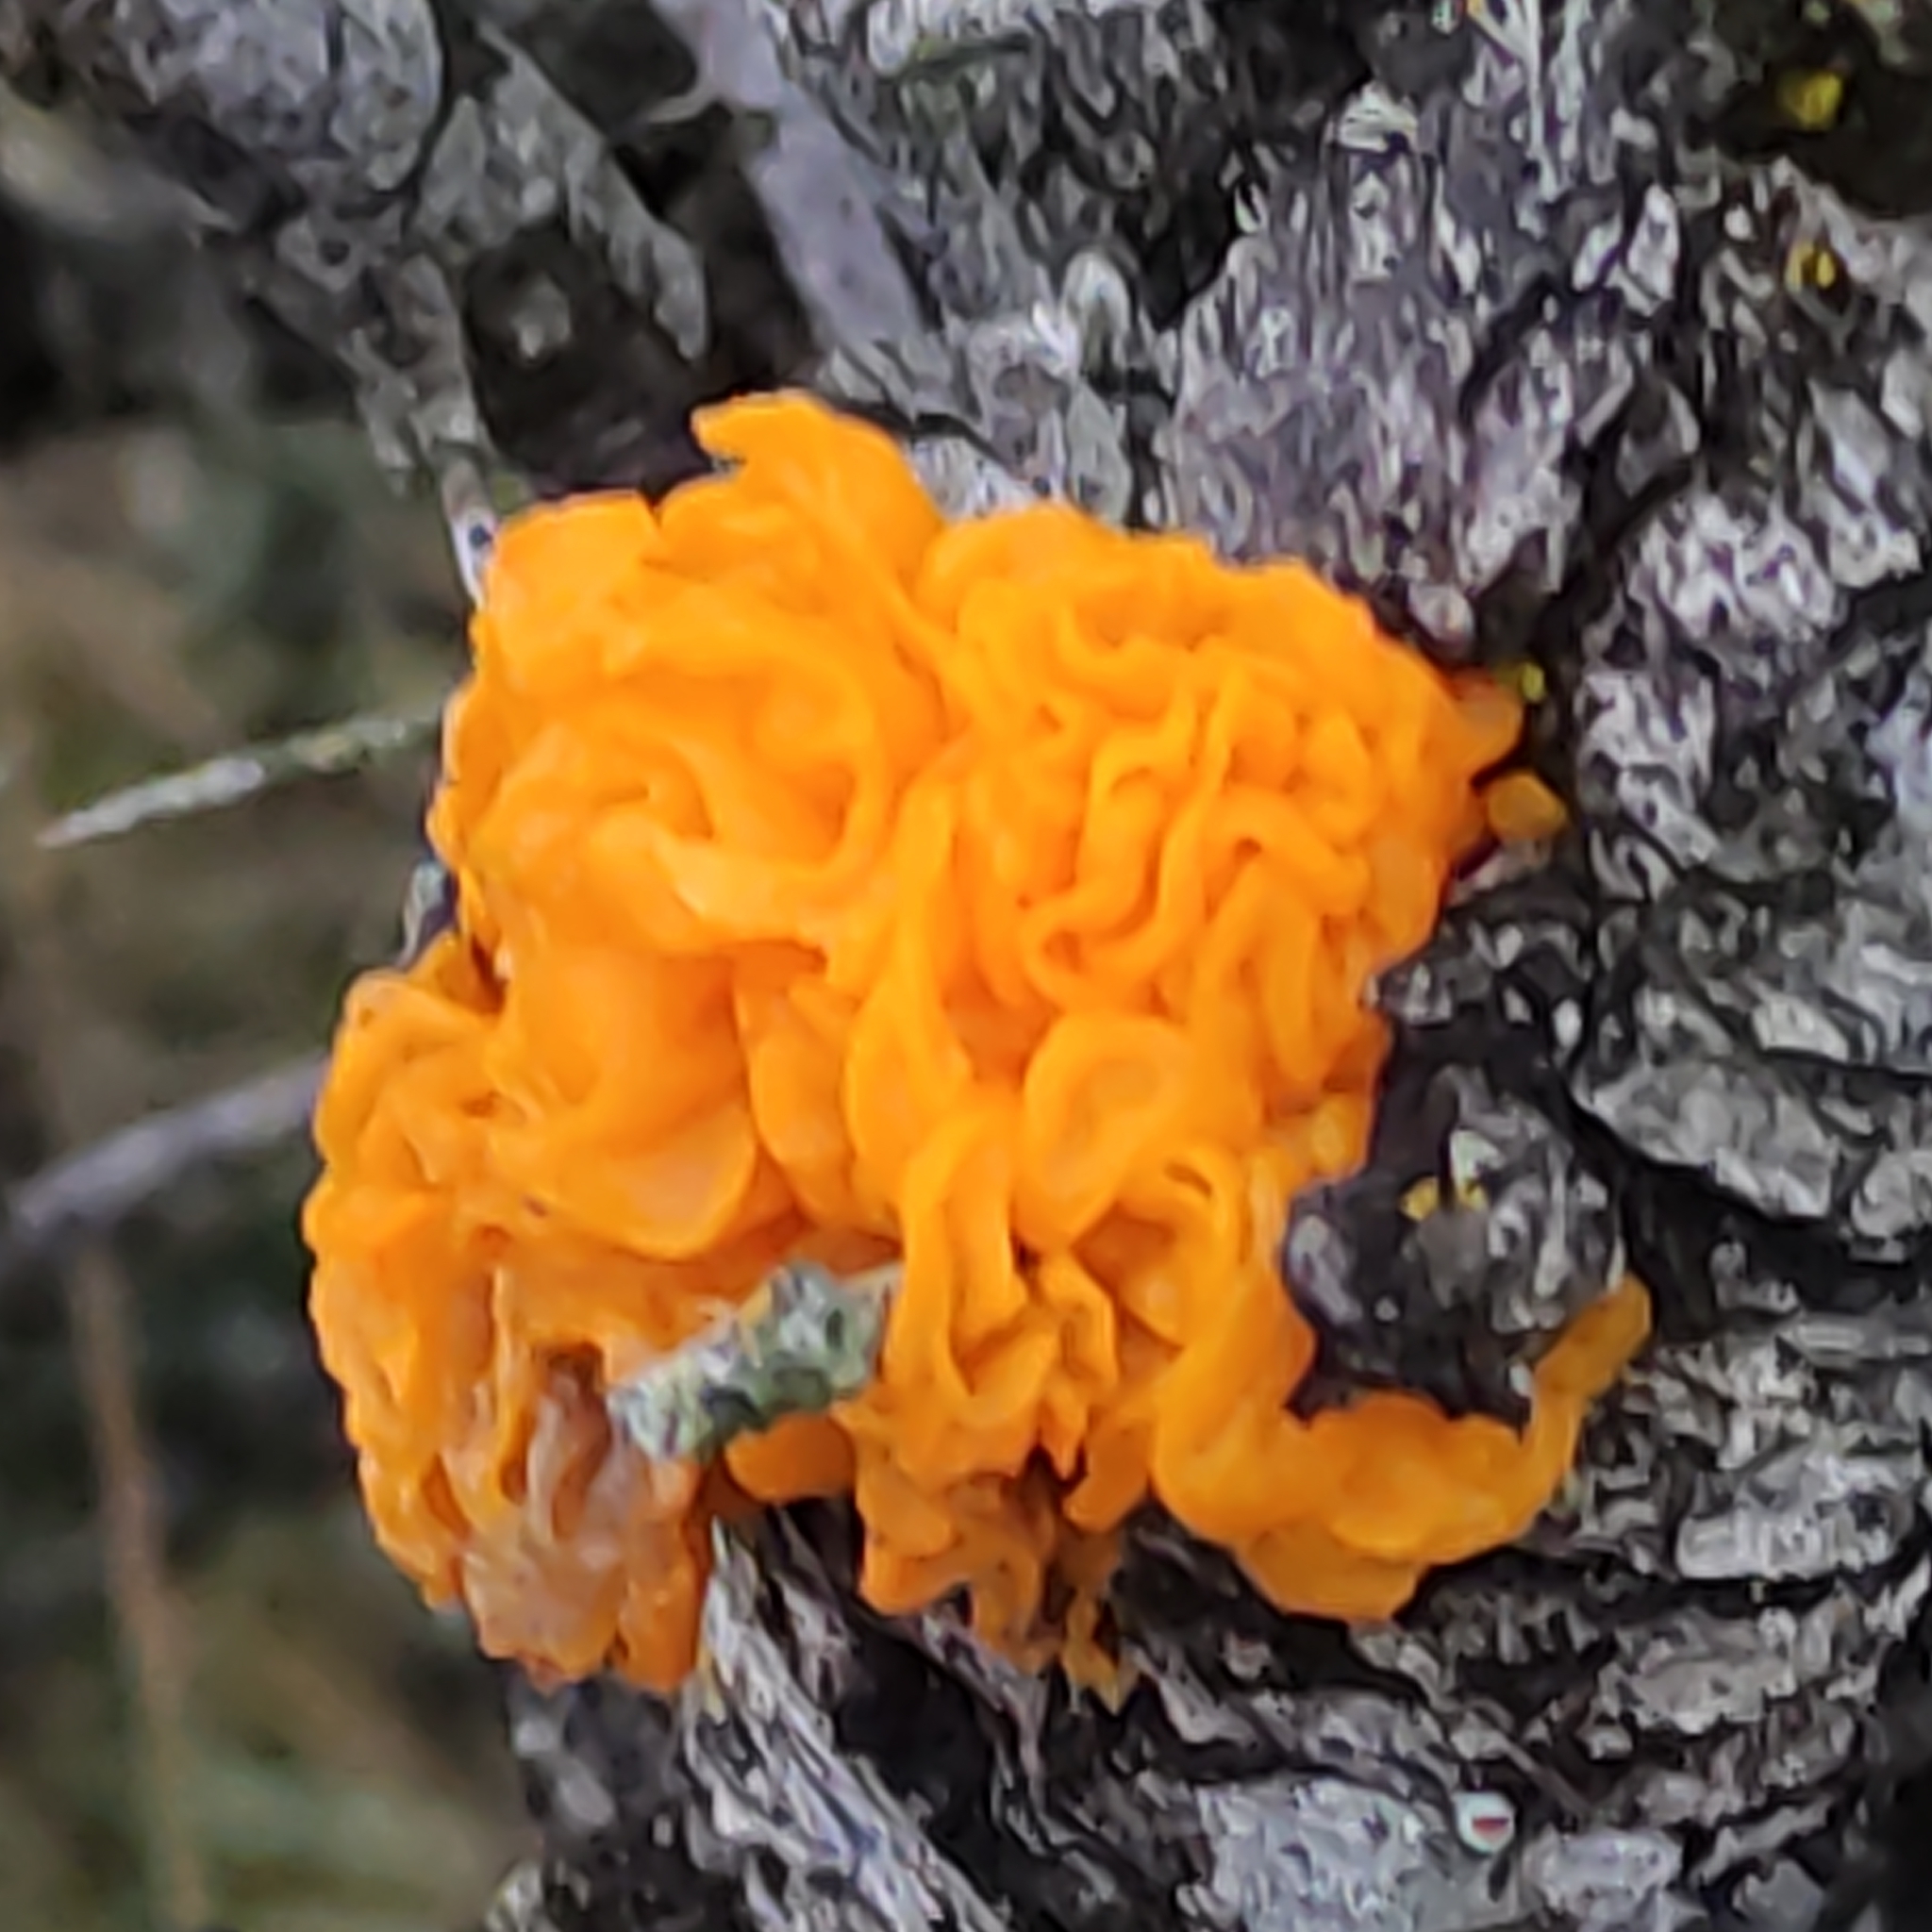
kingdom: Fungi
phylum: Basidiomycota
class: Tremellomycetes
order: Tremellales
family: Tremellaceae
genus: Tremella
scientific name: Tremella mesenterica
